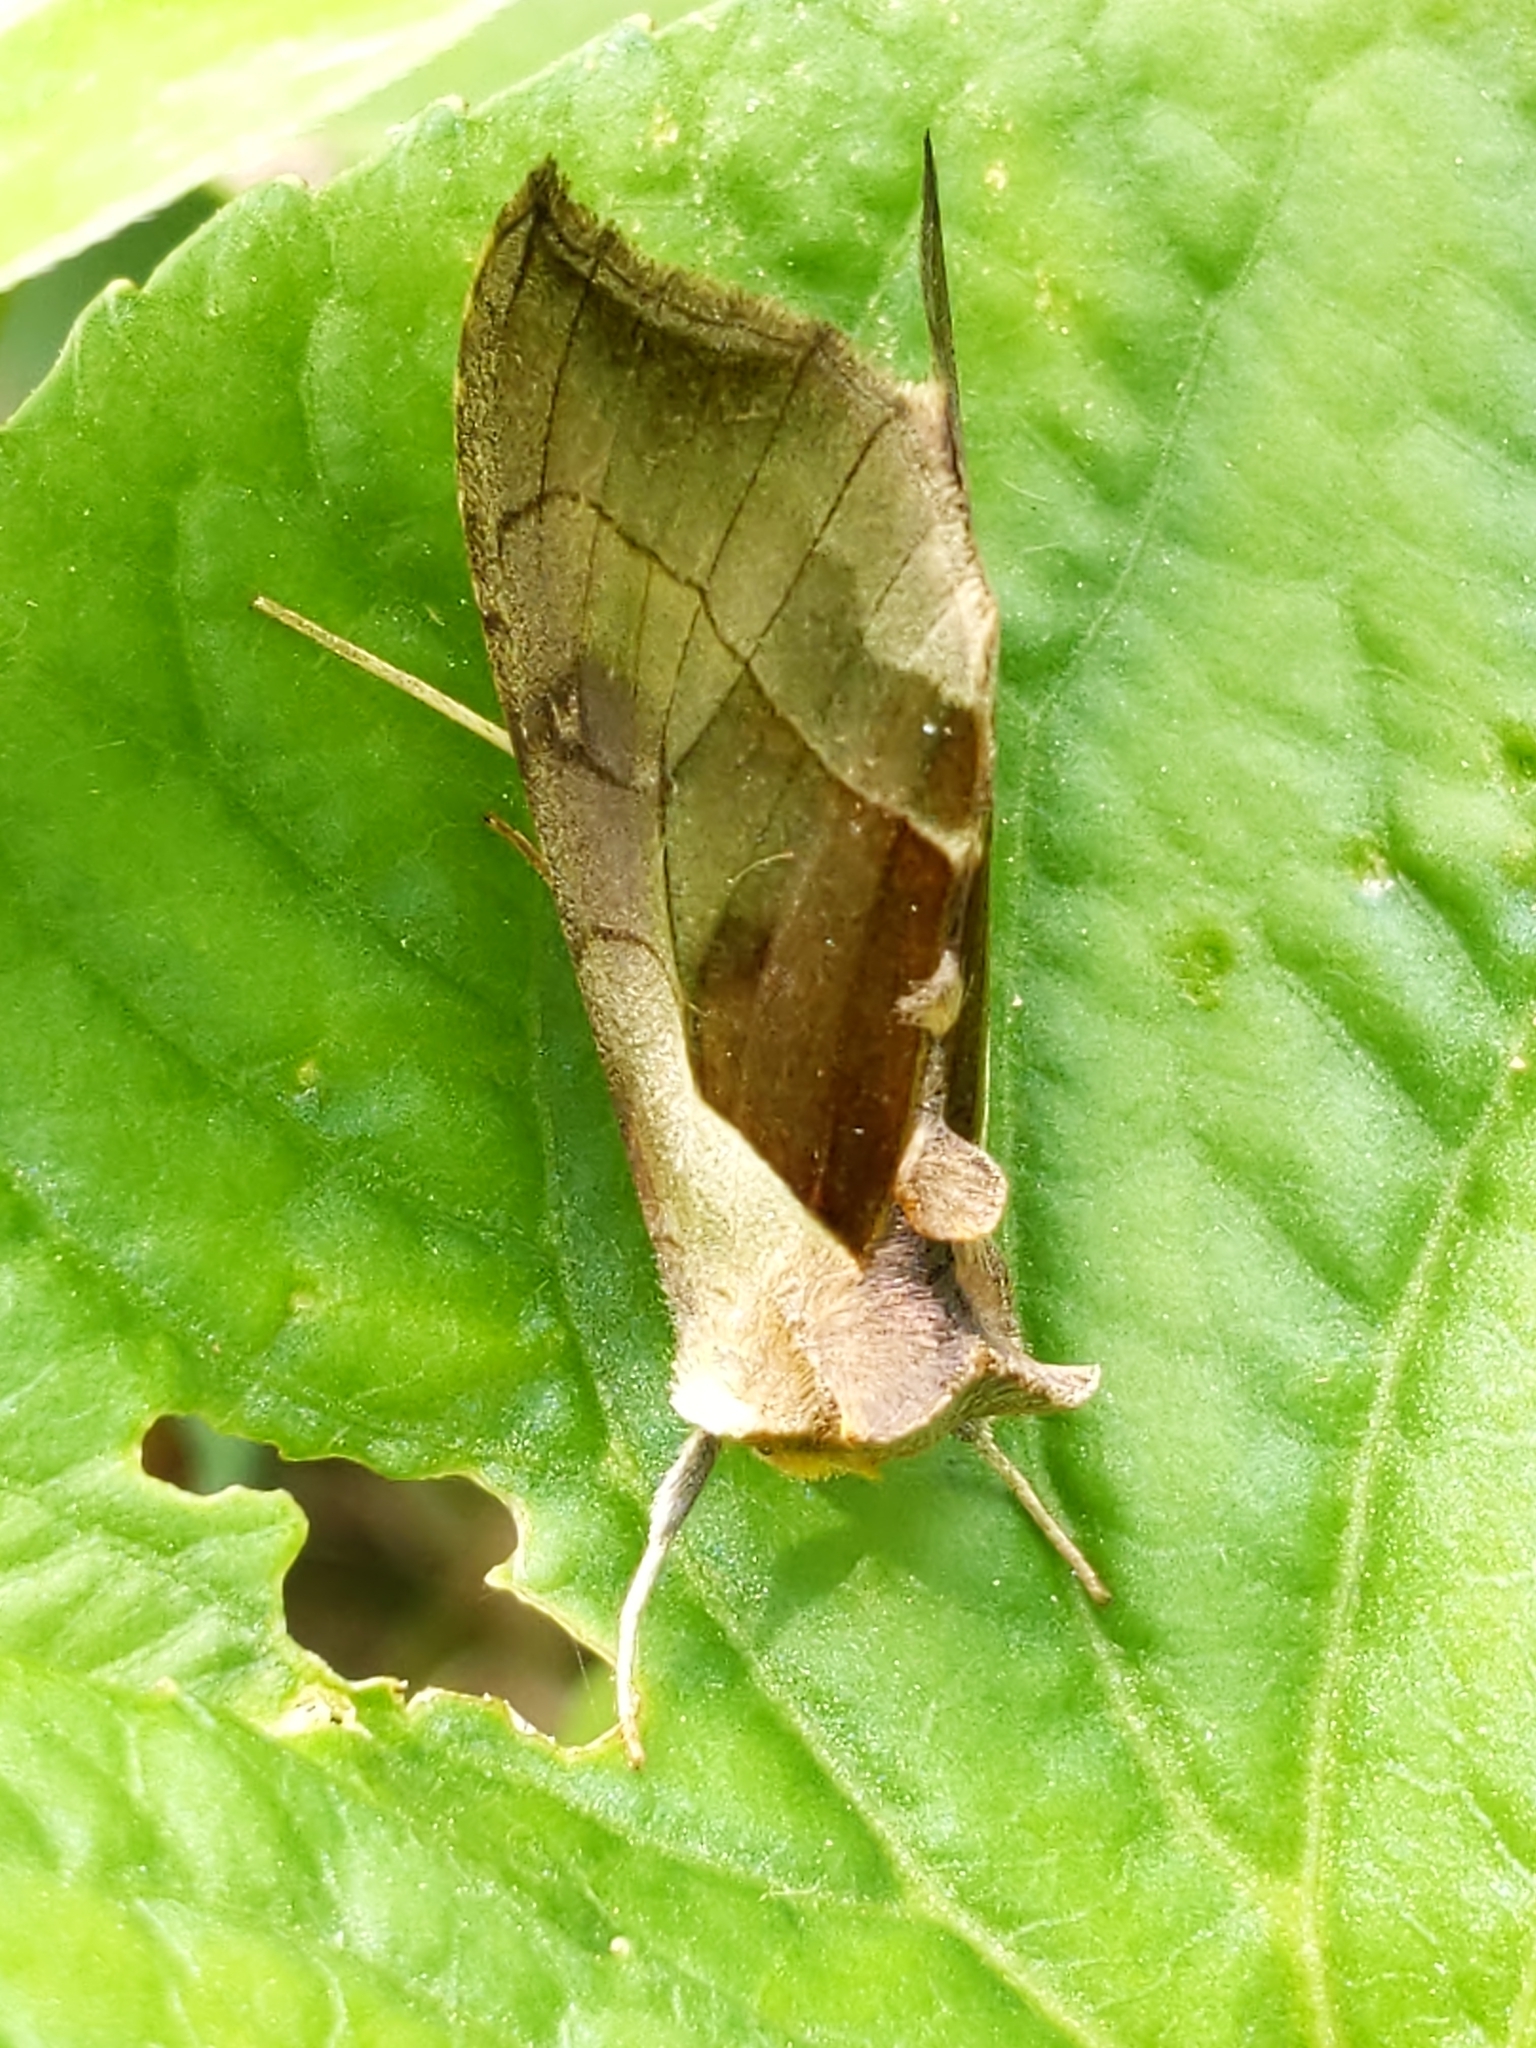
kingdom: Animalia
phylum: Arthropoda
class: Insecta
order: Lepidoptera
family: Noctuidae
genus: Diachrysia
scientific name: Diachrysia balluca
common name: Green-patched looper moth
